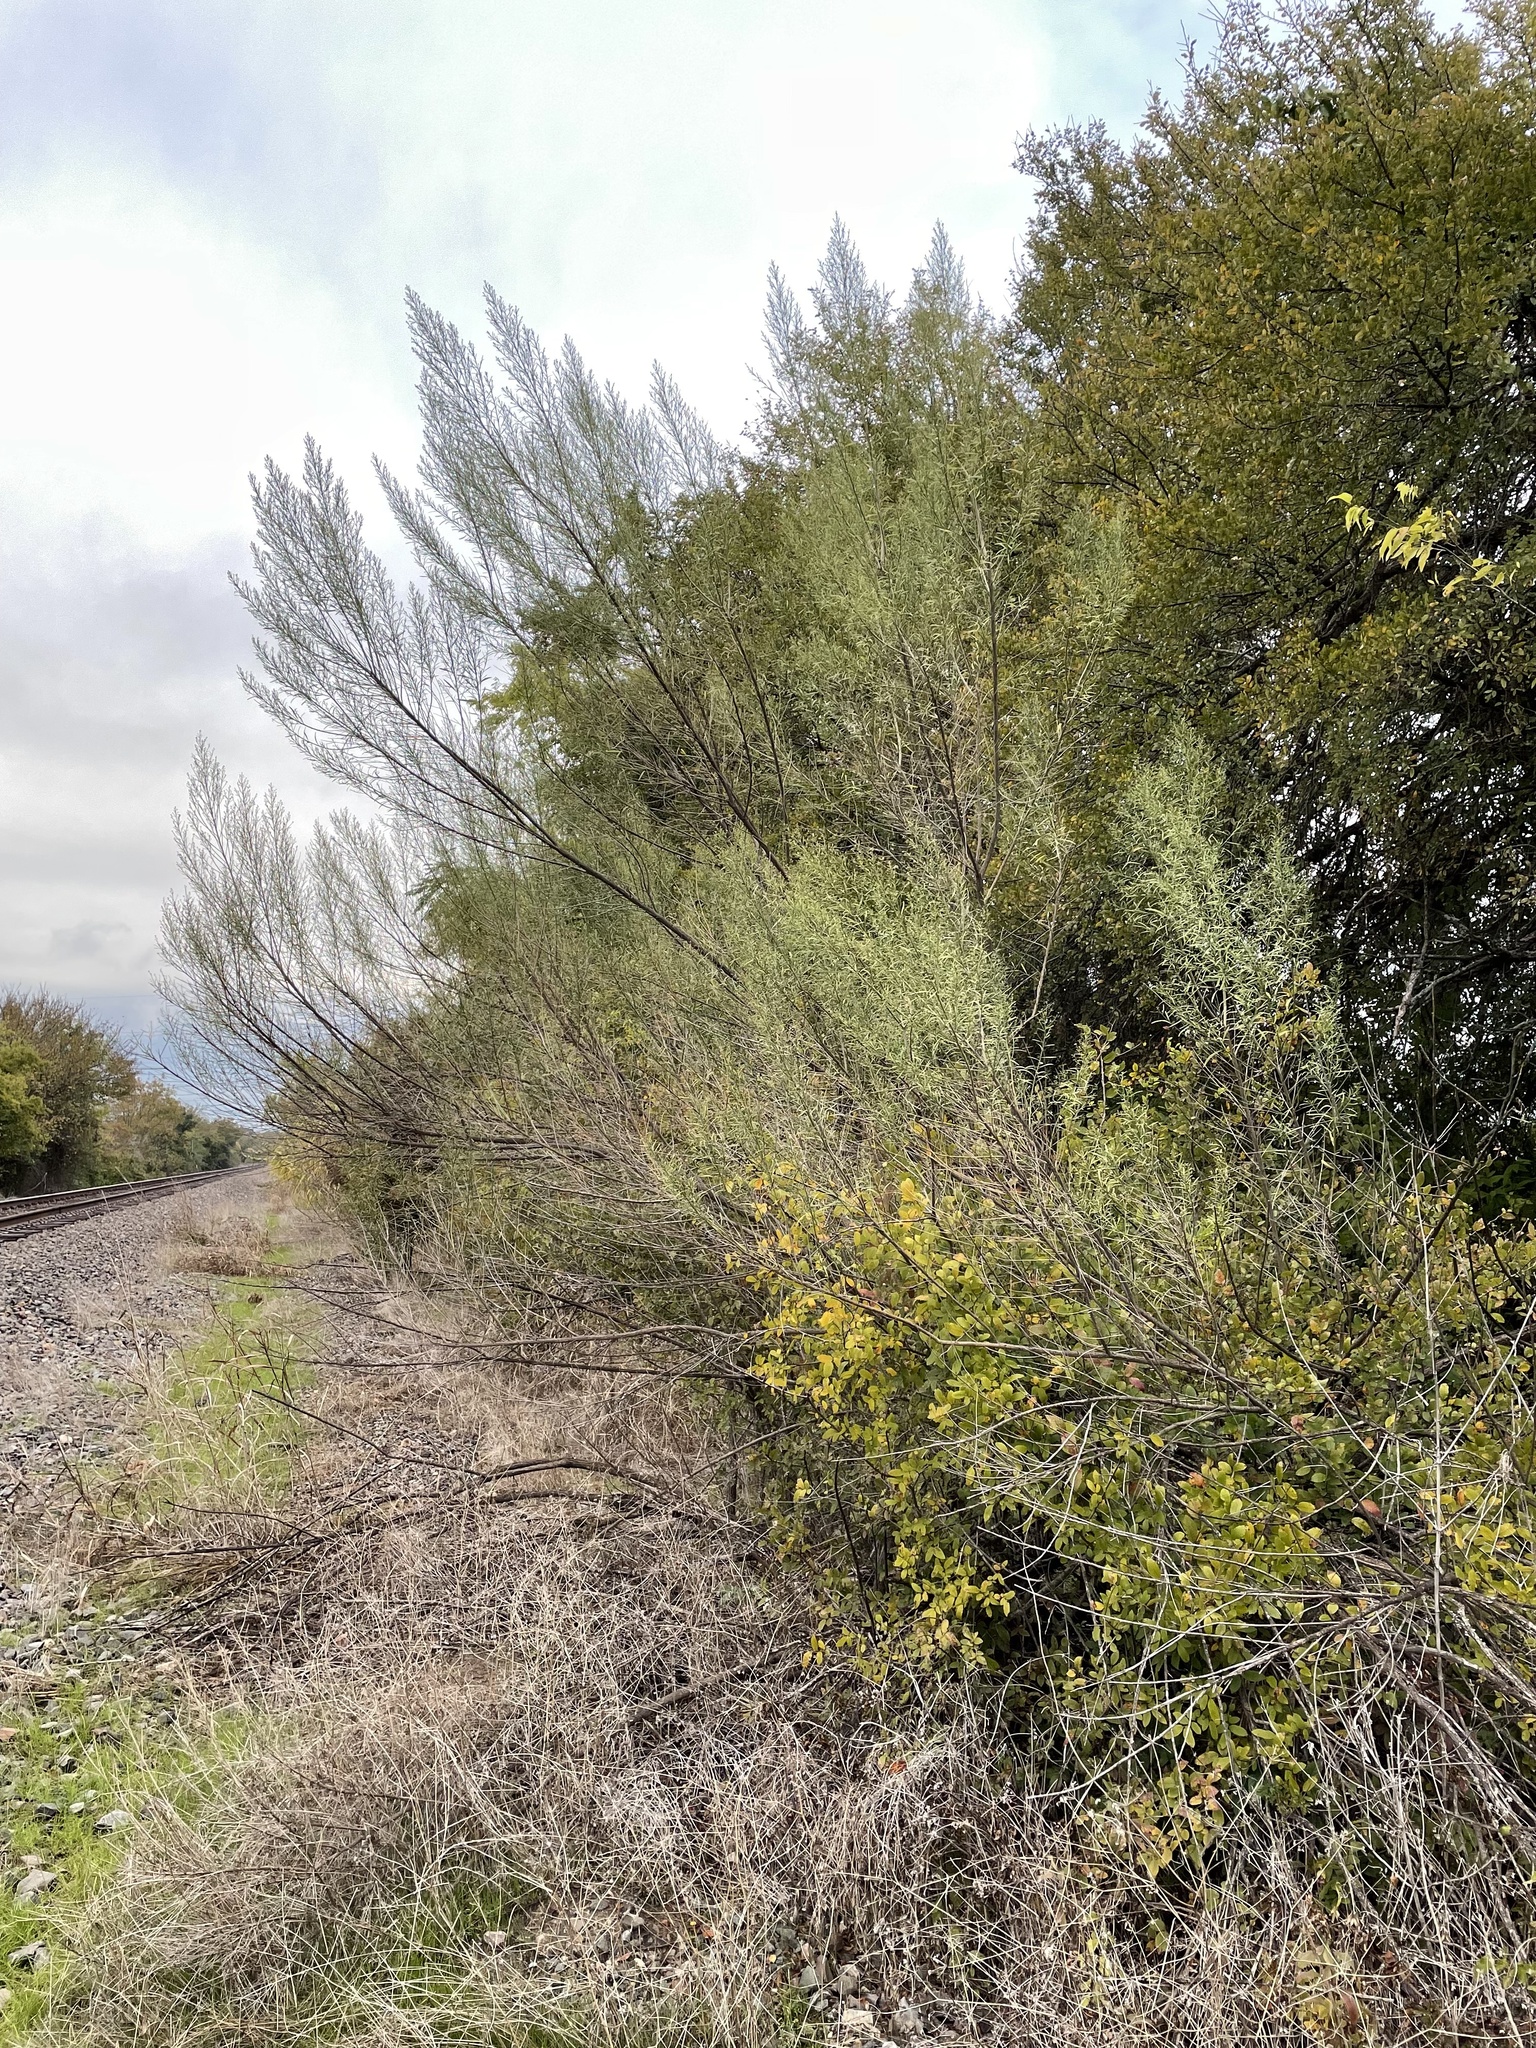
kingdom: Plantae
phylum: Tracheophyta
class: Magnoliopsida
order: Asterales
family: Asteraceae
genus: Baccharis
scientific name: Baccharis neglecta
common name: Roosevelt-weed
